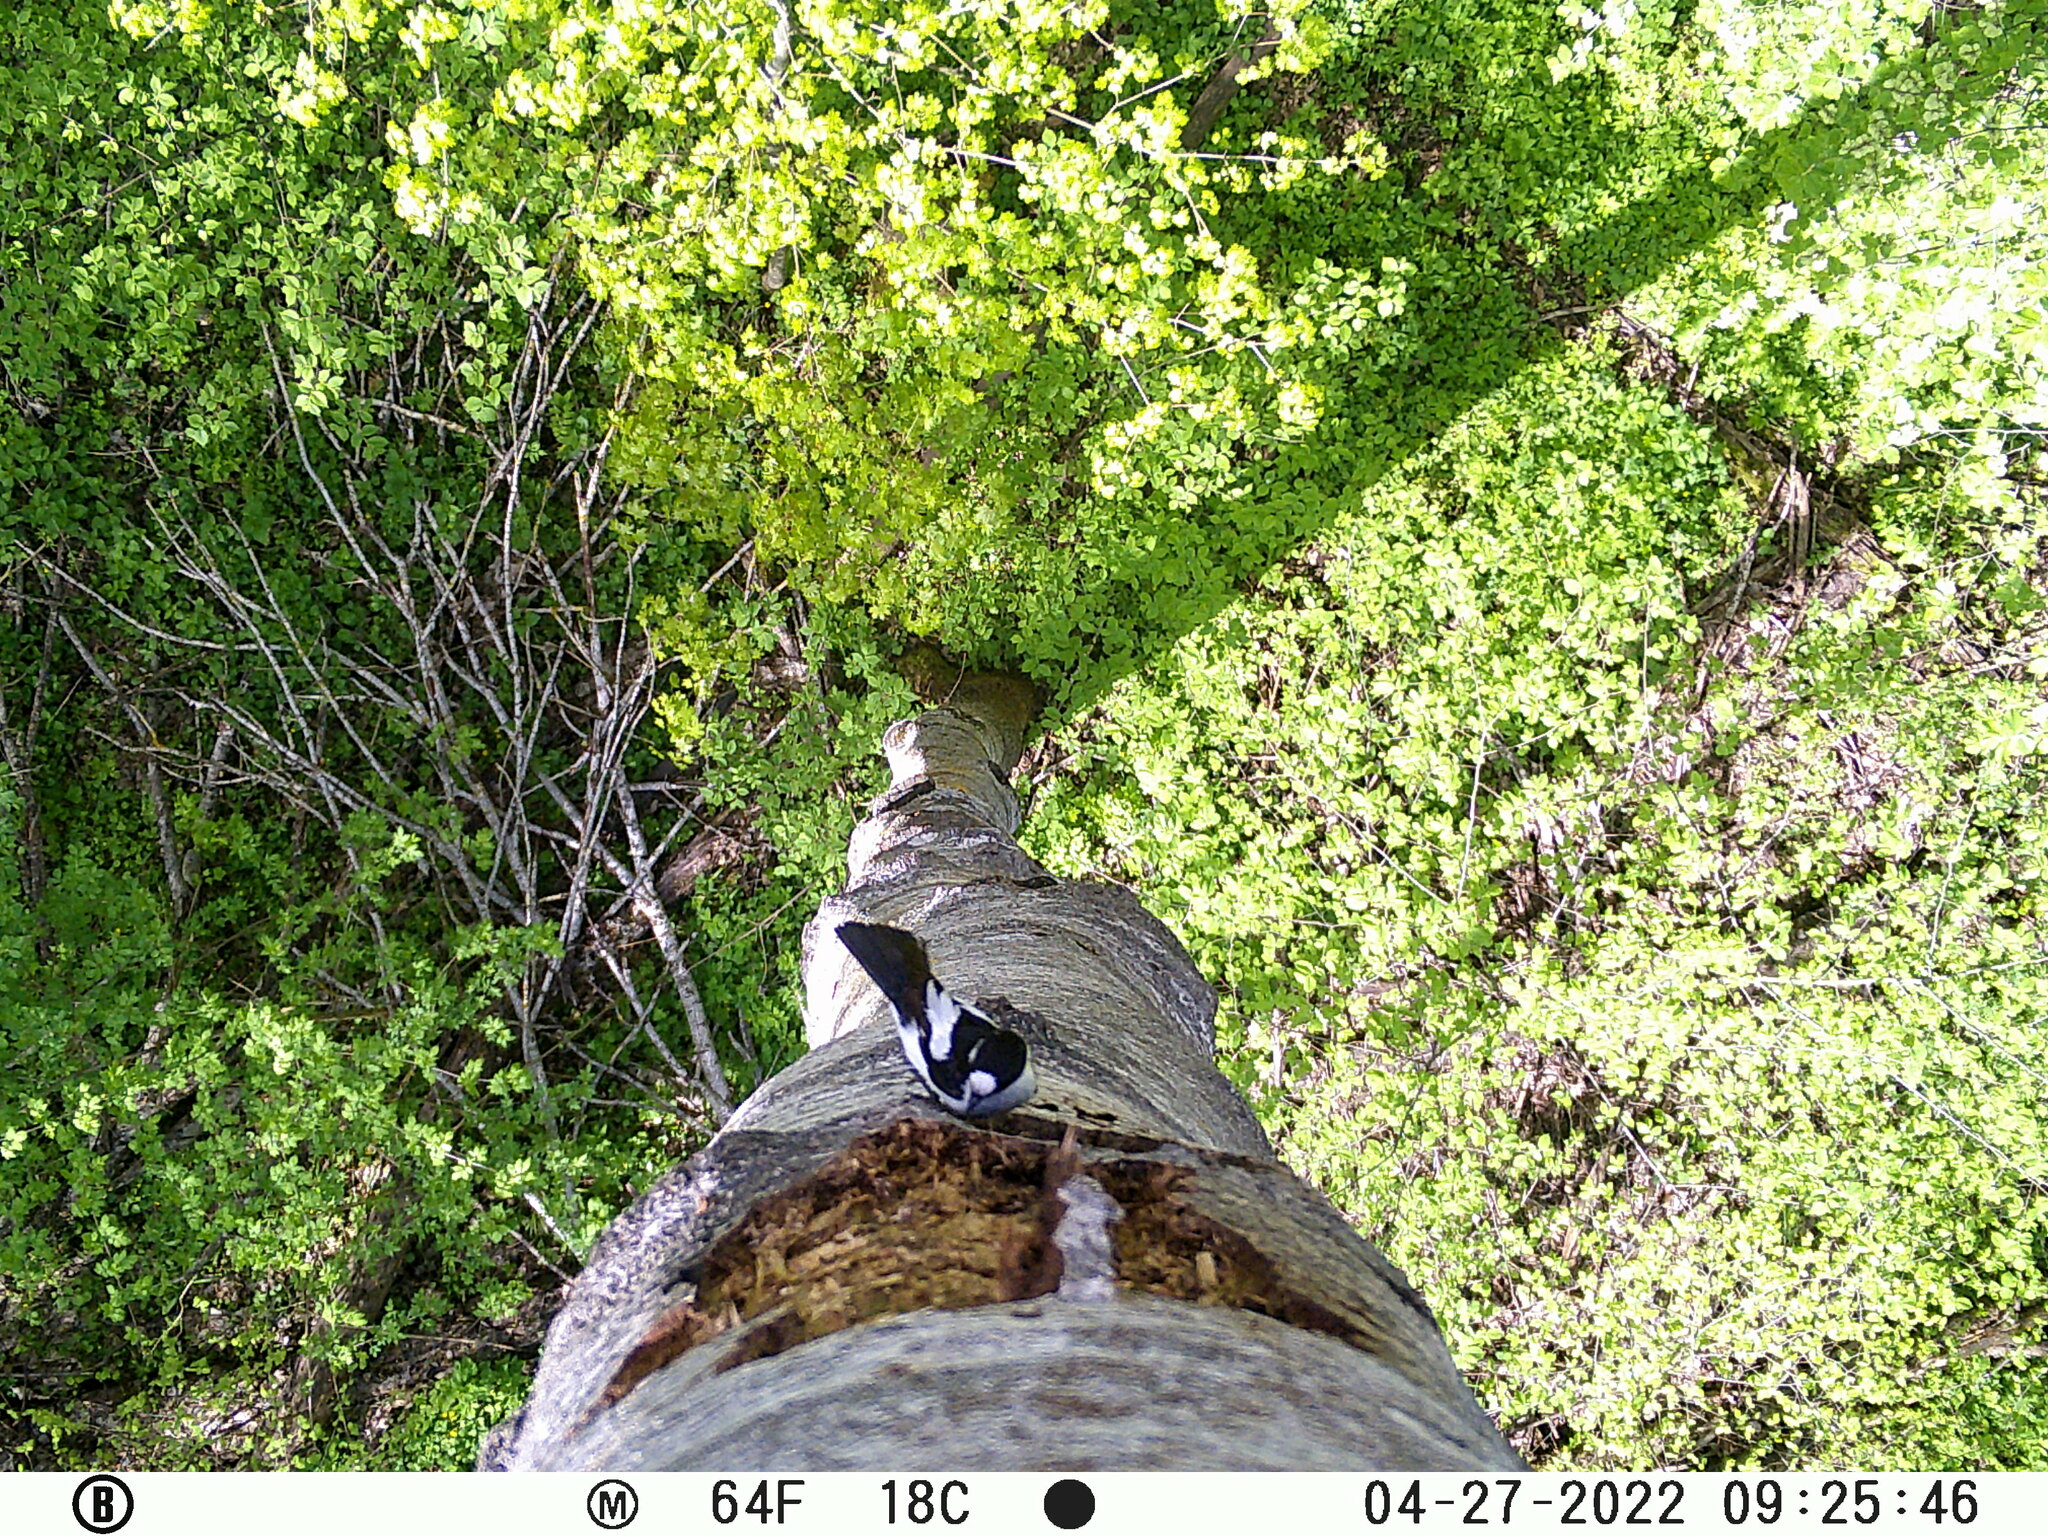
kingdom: Animalia
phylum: Chordata
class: Aves
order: Passeriformes
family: Muscicapidae
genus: Ficedula
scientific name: Ficedula albicollis
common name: Collared flycatcher
